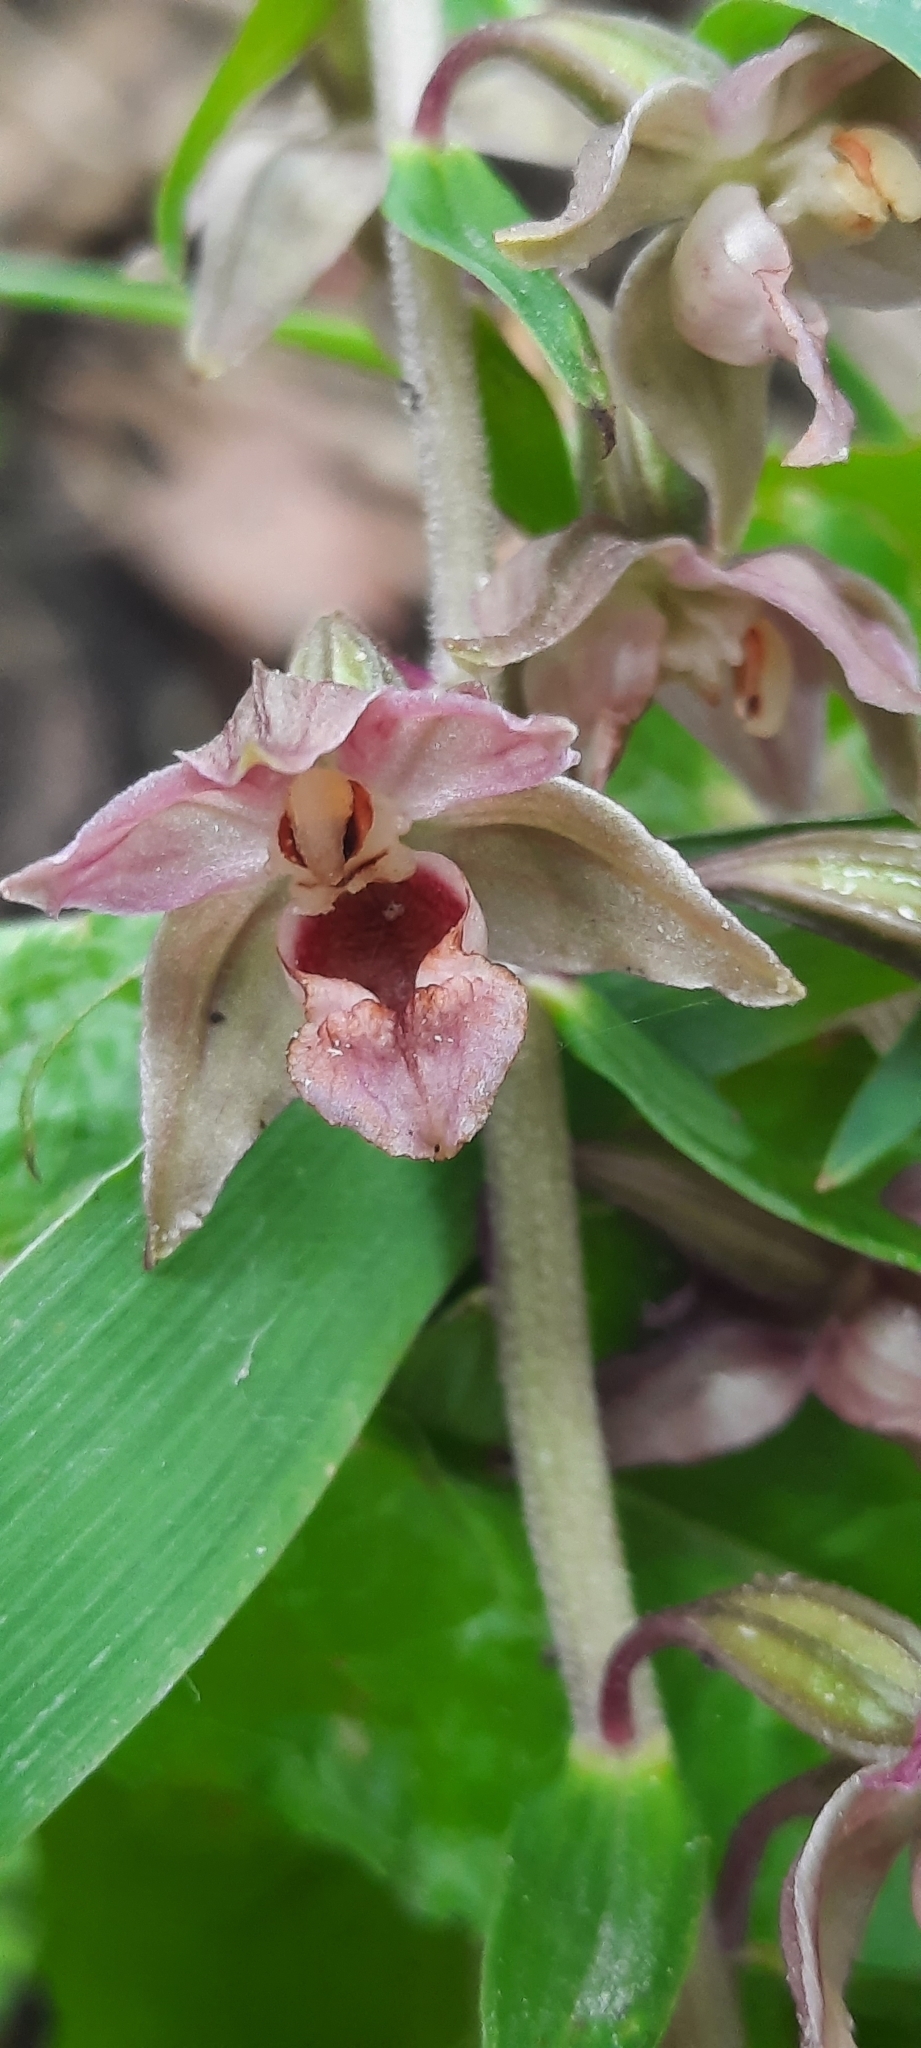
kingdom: Plantae
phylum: Tracheophyta
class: Liliopsida
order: Asparagales
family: Orchidaceae
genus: Epipactis
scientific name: Epipactis helleborine
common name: Broad-leaved helleborine
